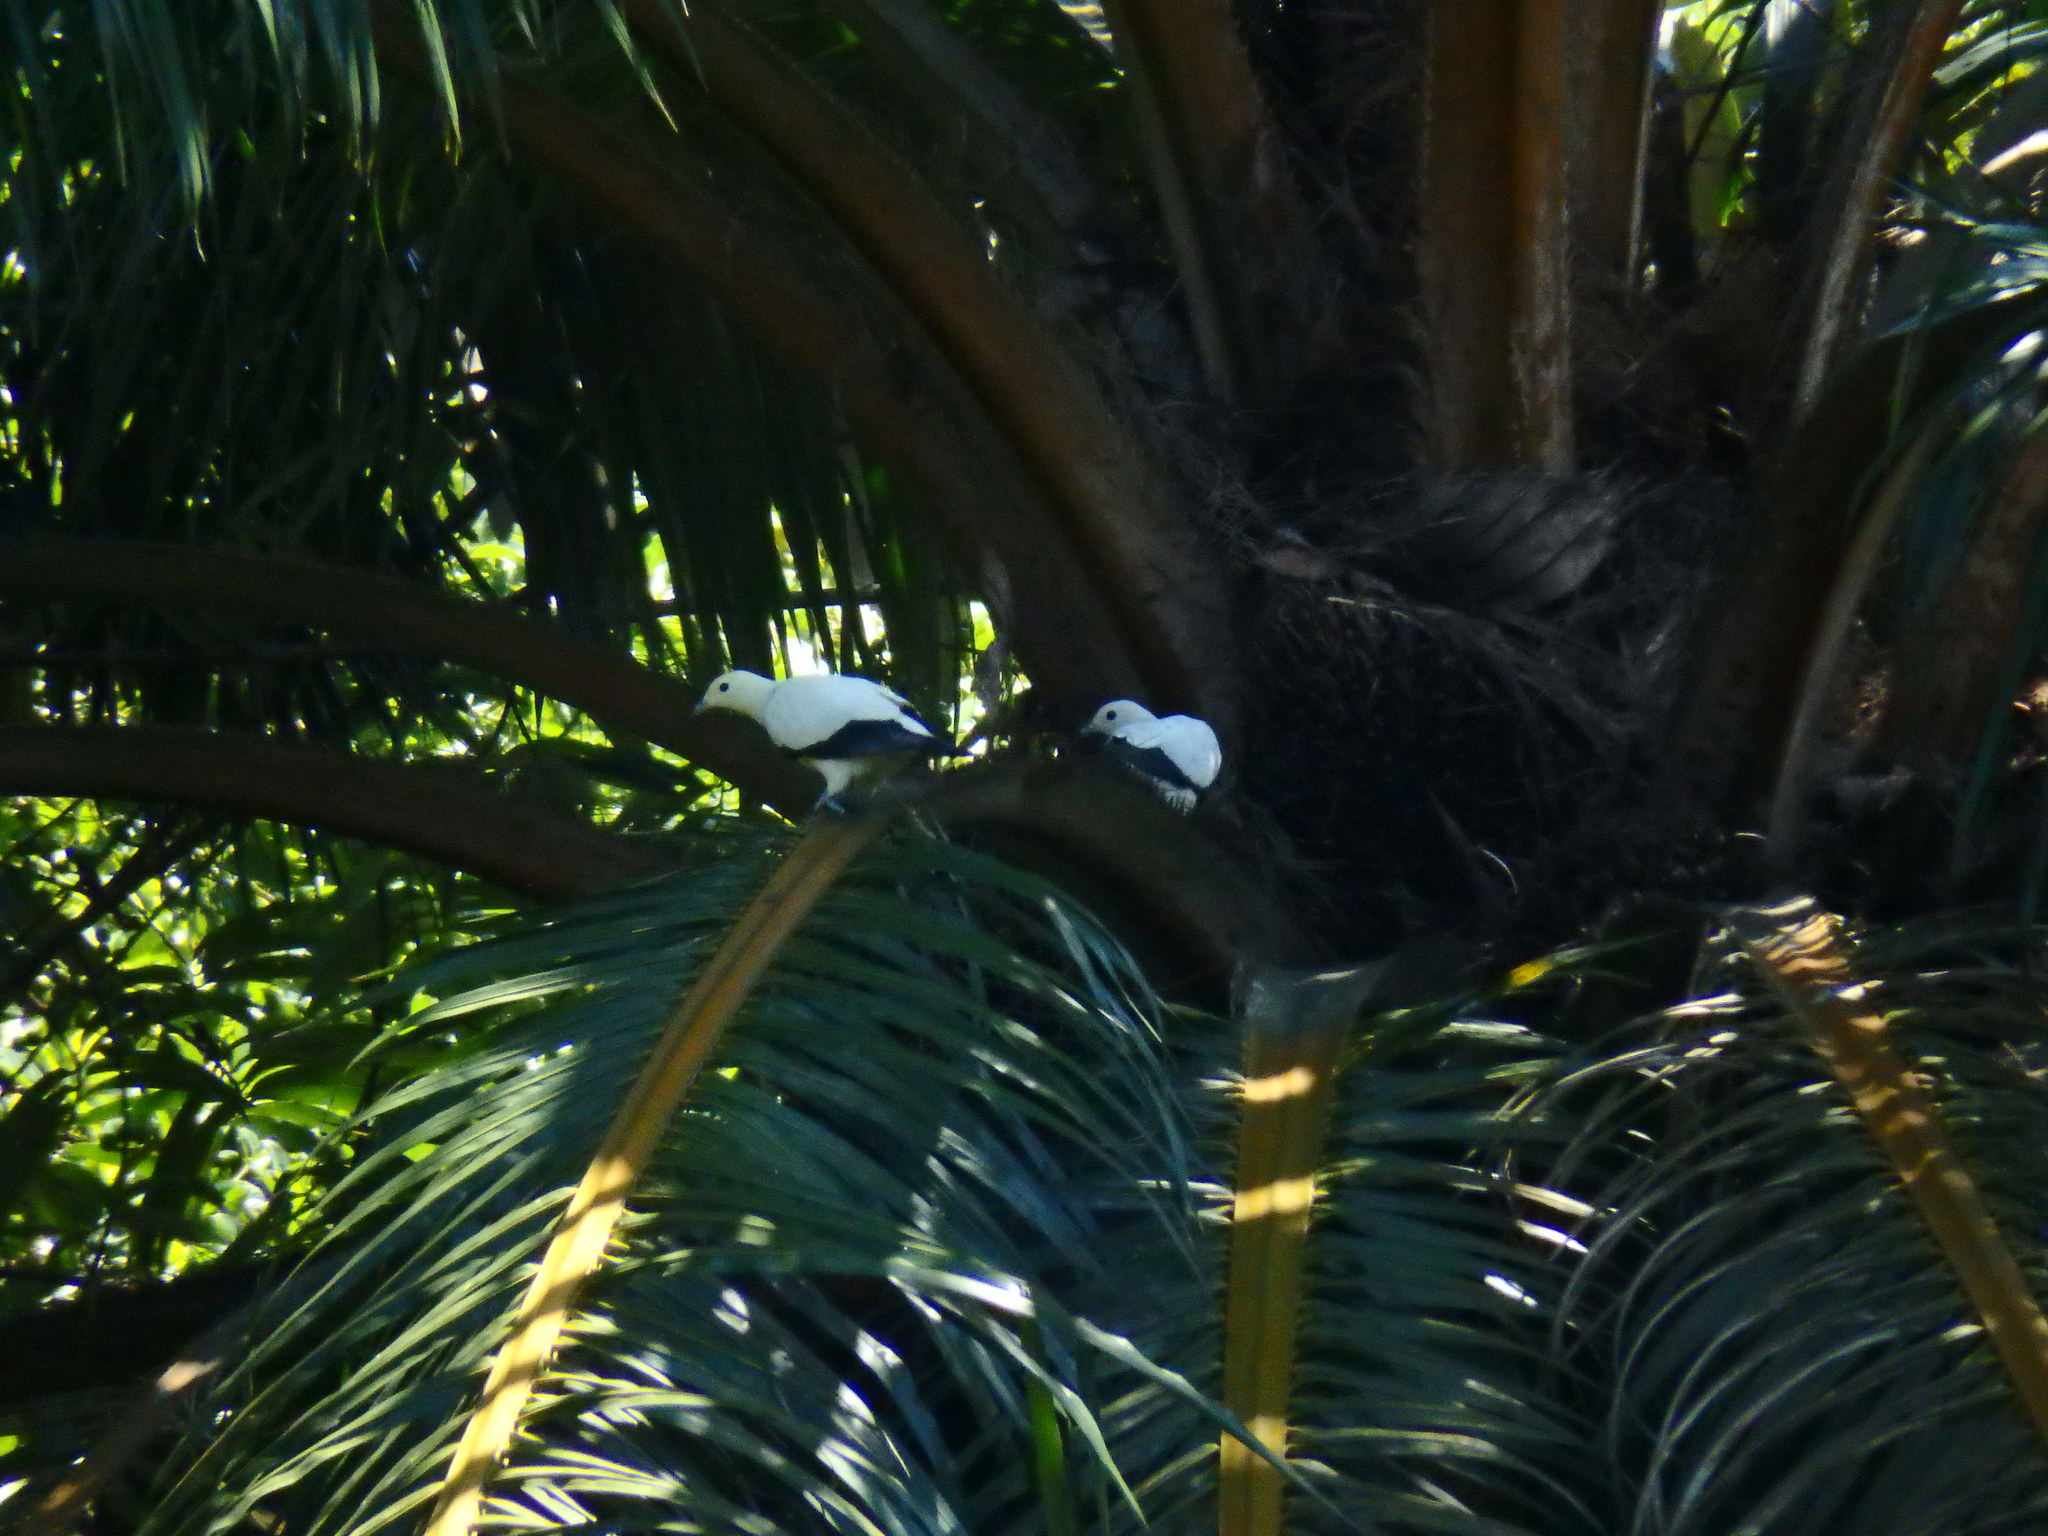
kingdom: Animalia
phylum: Chordata
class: Aves
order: Columbiformes
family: Columbidae
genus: Ducula
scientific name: Ducula bicolor
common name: Pied imperial pigeon
